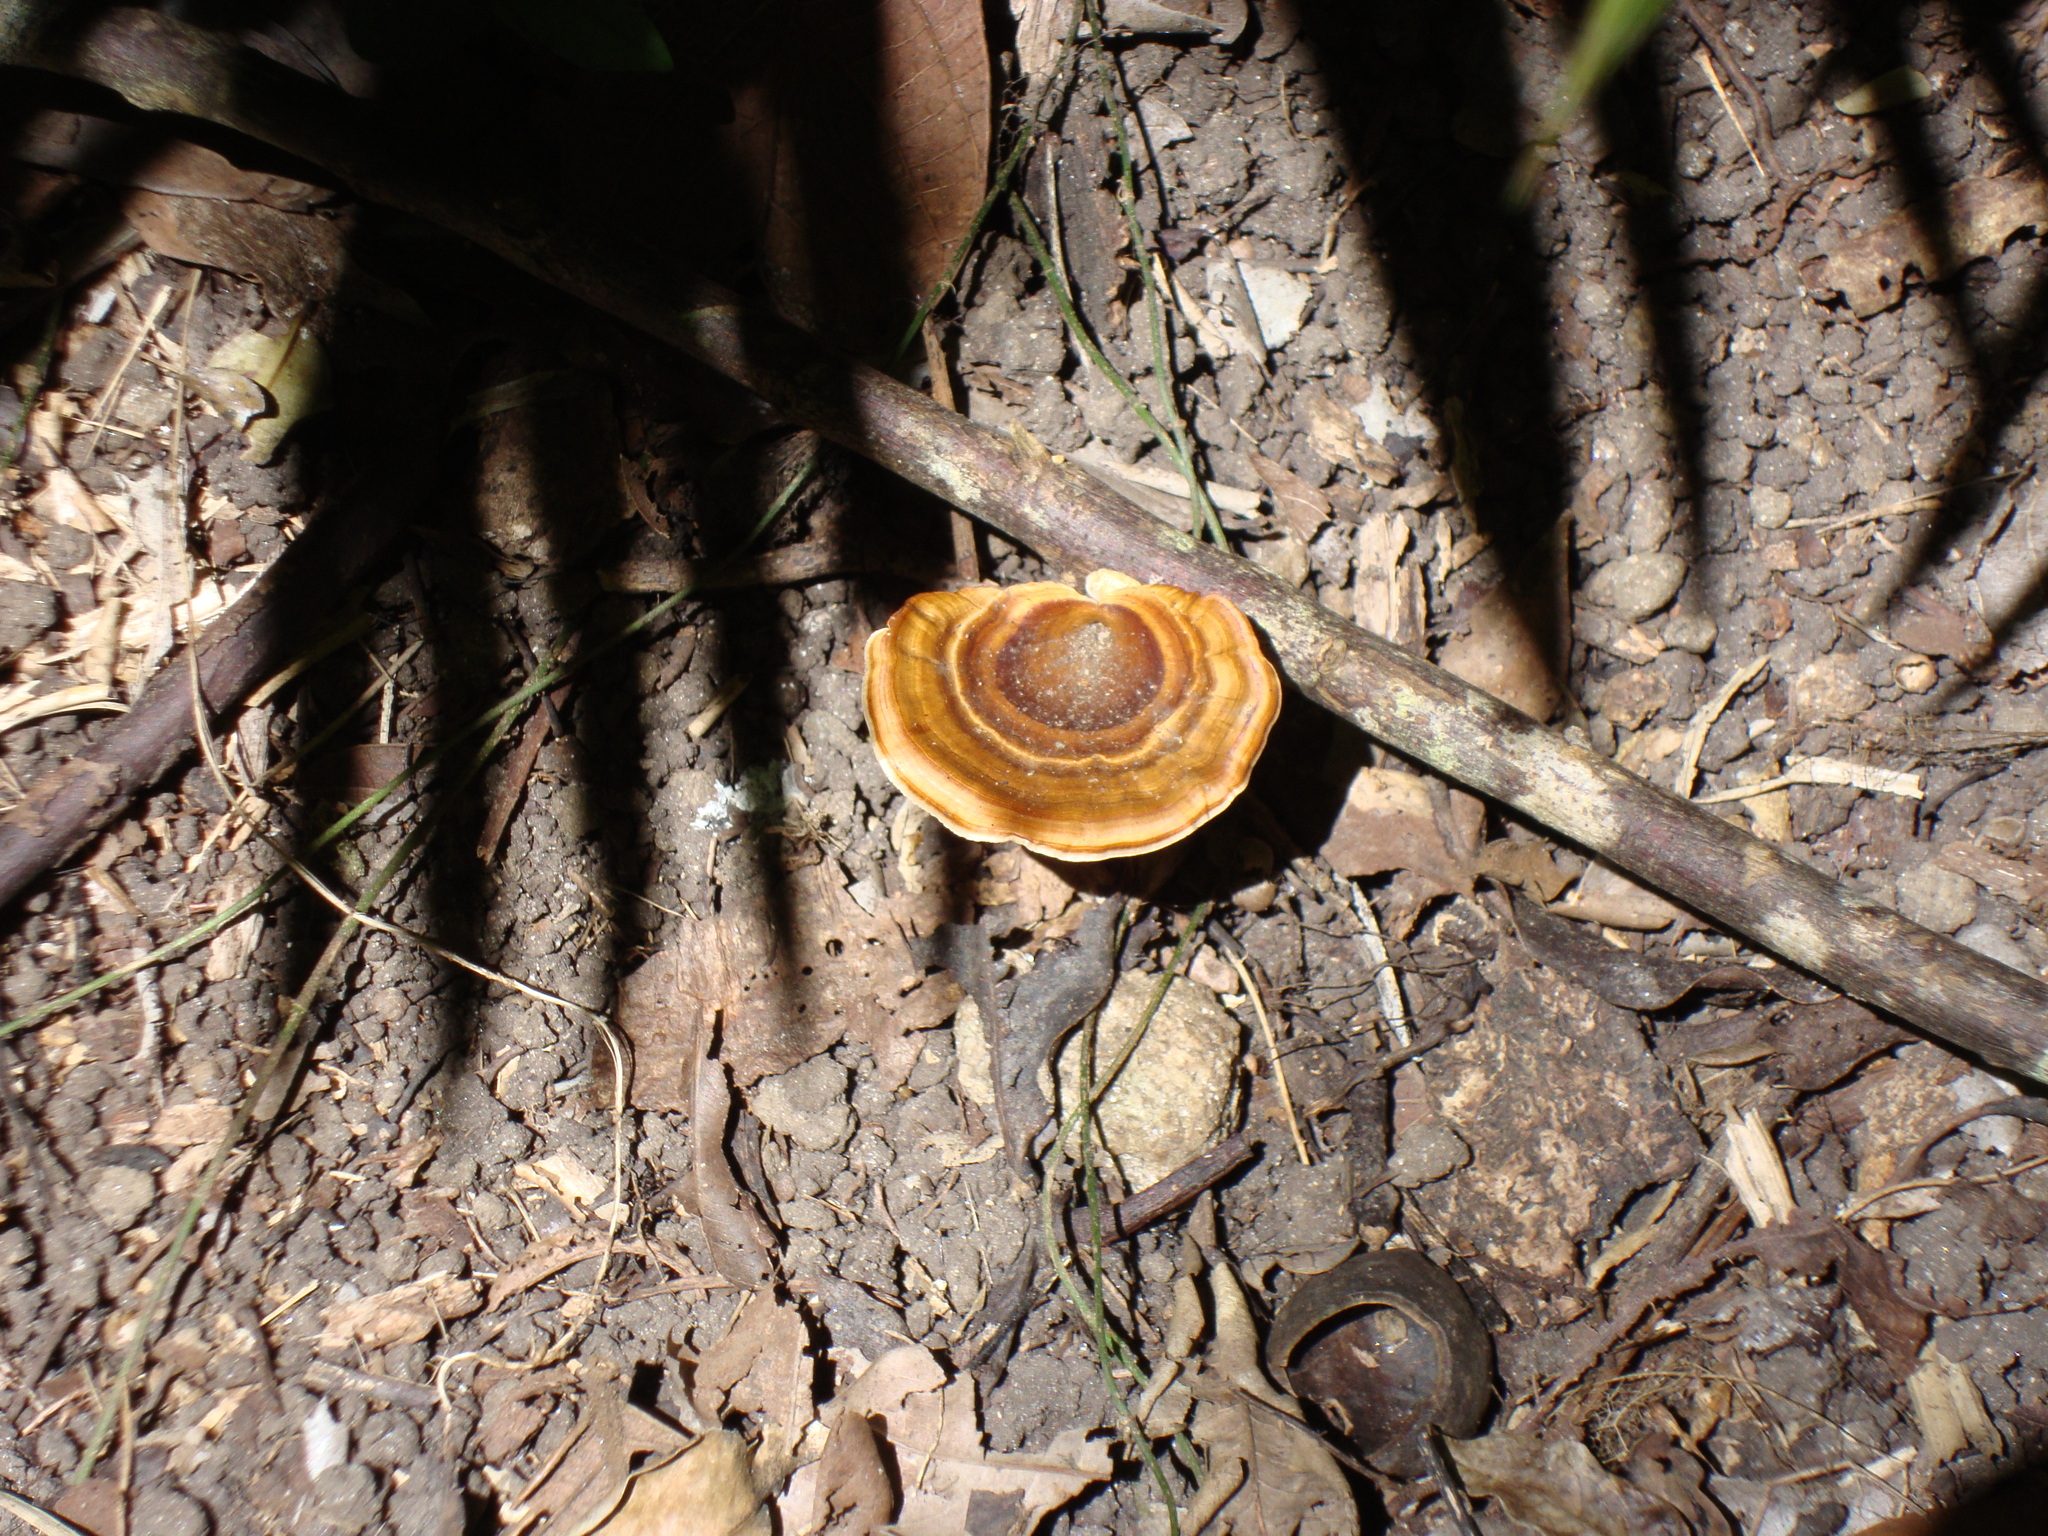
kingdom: Fungi
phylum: Basidiomycota
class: Agaricomycetes
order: Polyporales
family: Polyporaceae
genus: Microporus
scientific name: Microporus xanthopus
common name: Yellow-stemmed micropore
